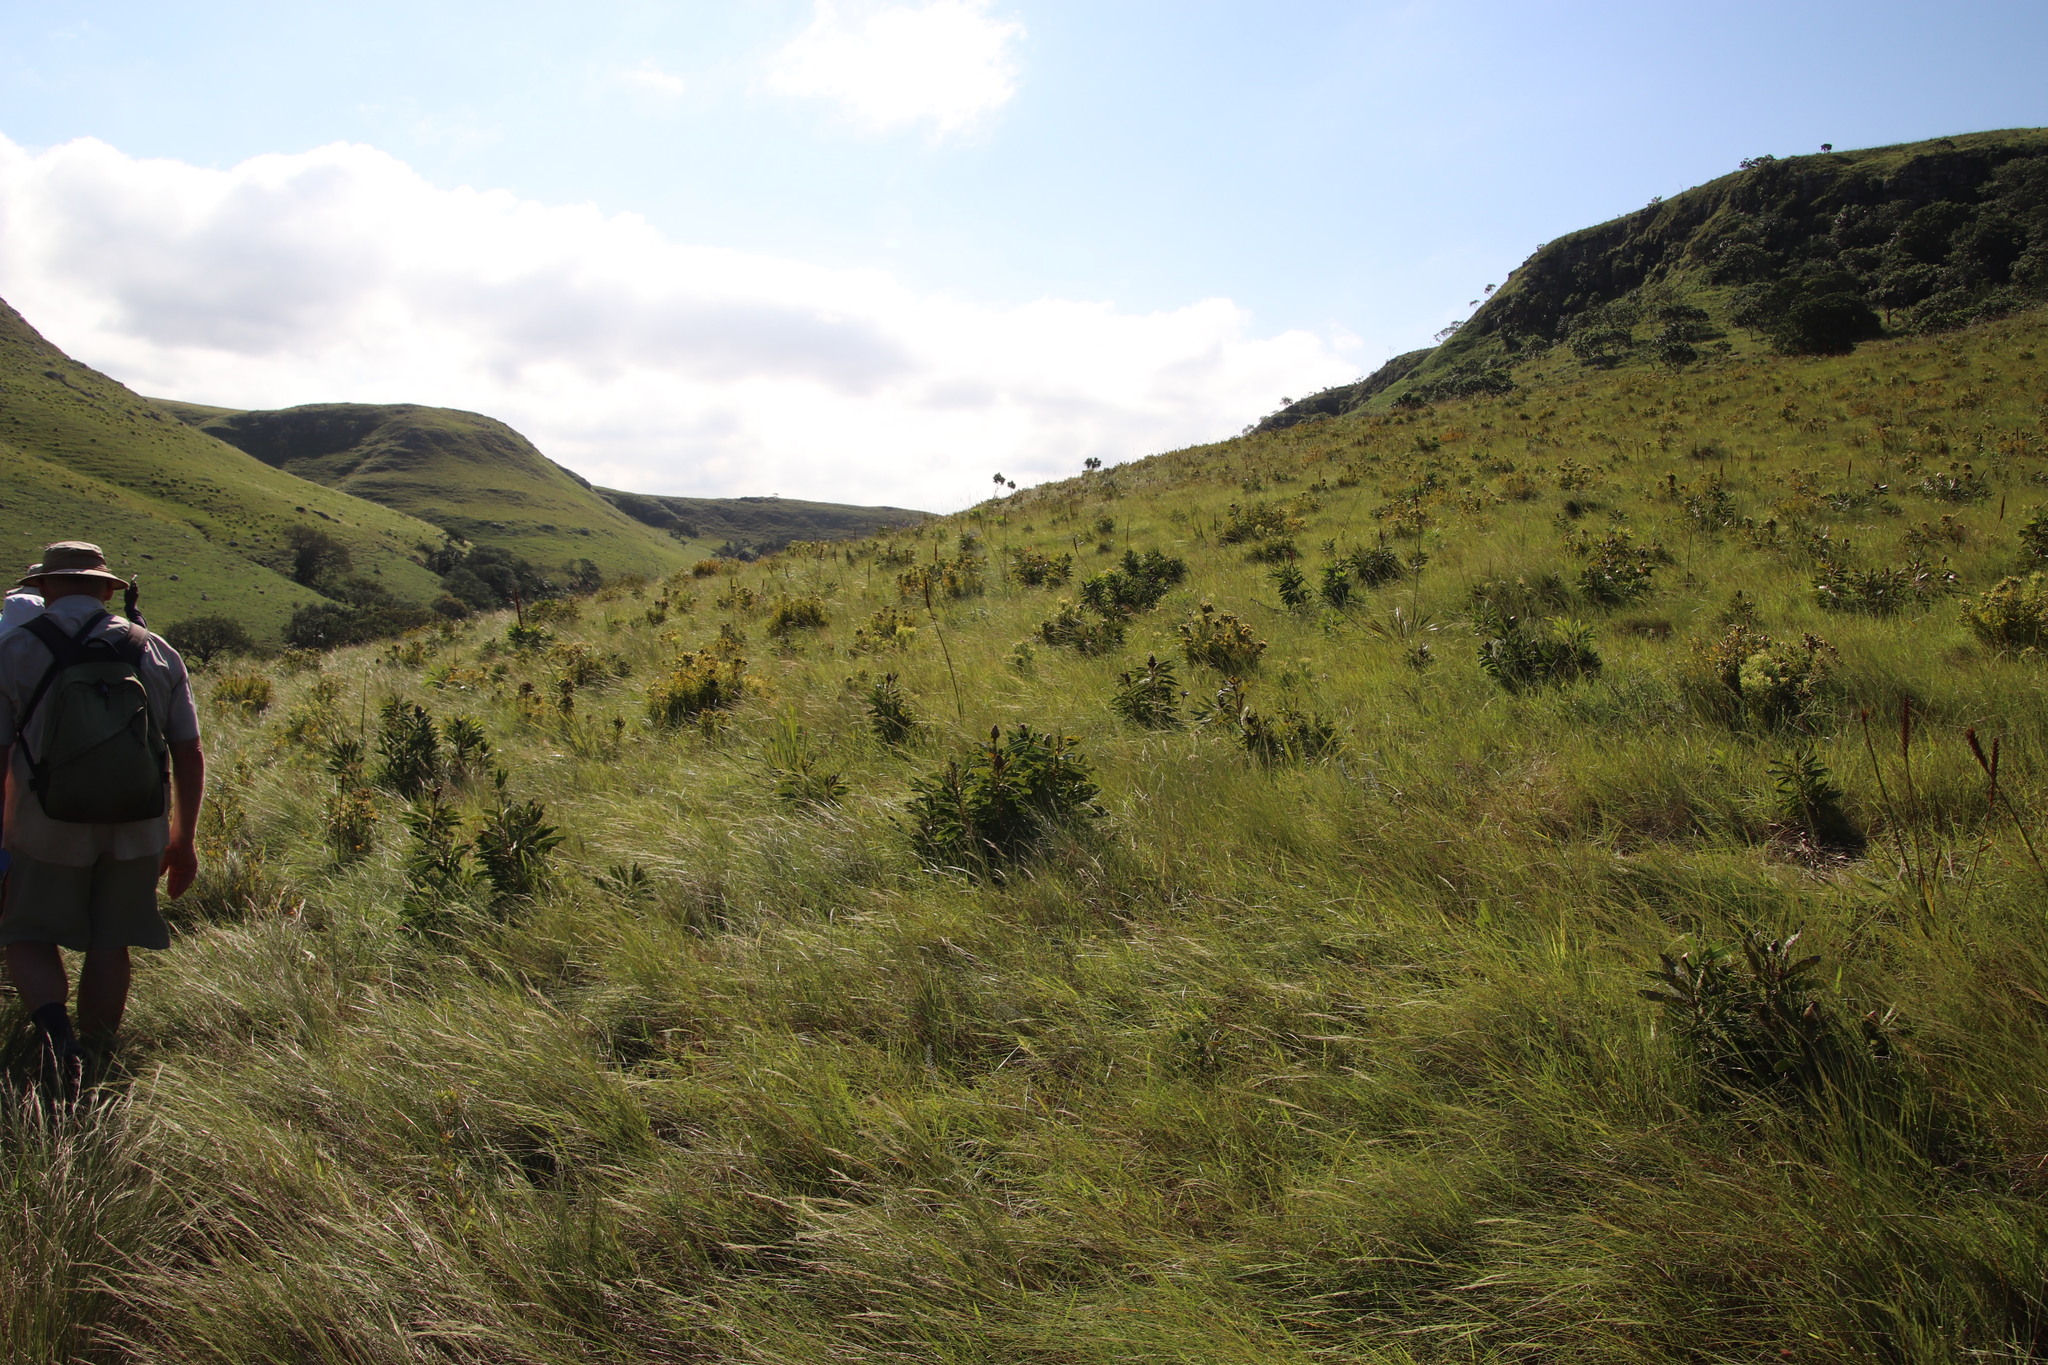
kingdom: Plantae
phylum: Tracheophyta
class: Magnoliopsida
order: Proteales
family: Proteaceae
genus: Protea
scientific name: Protea
